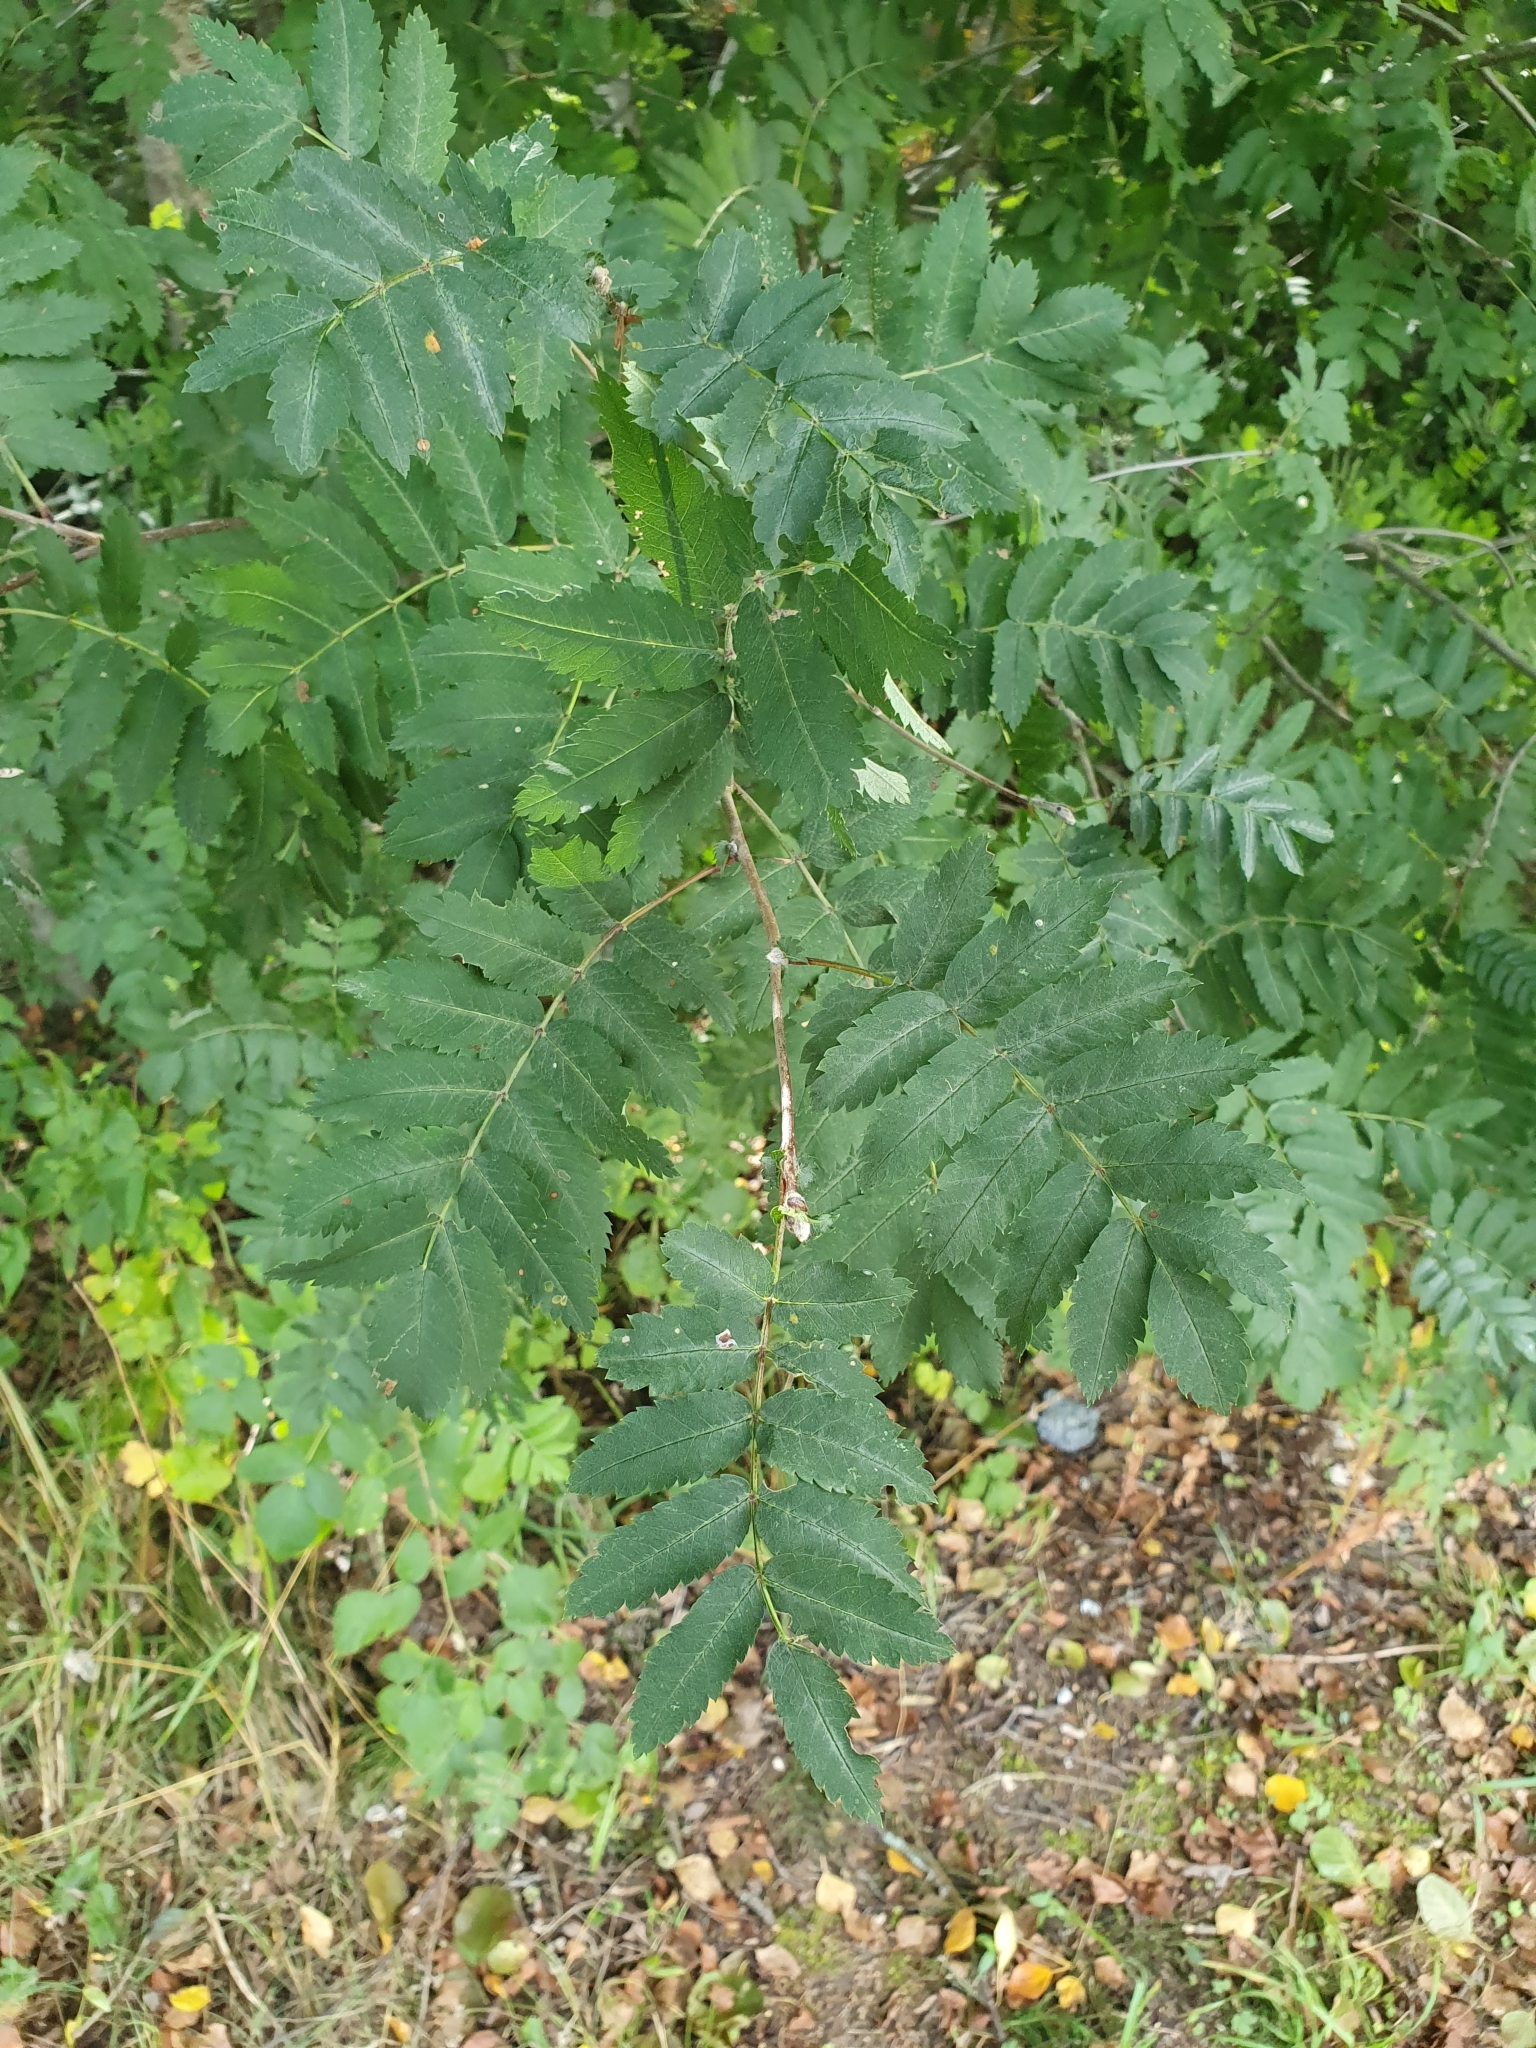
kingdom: Plantae
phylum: Tracheophyta
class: Magnoliopsida
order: Rosales
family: Rosaceae
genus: Sorbus
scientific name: Sorbus aucuparia
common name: Rowan
